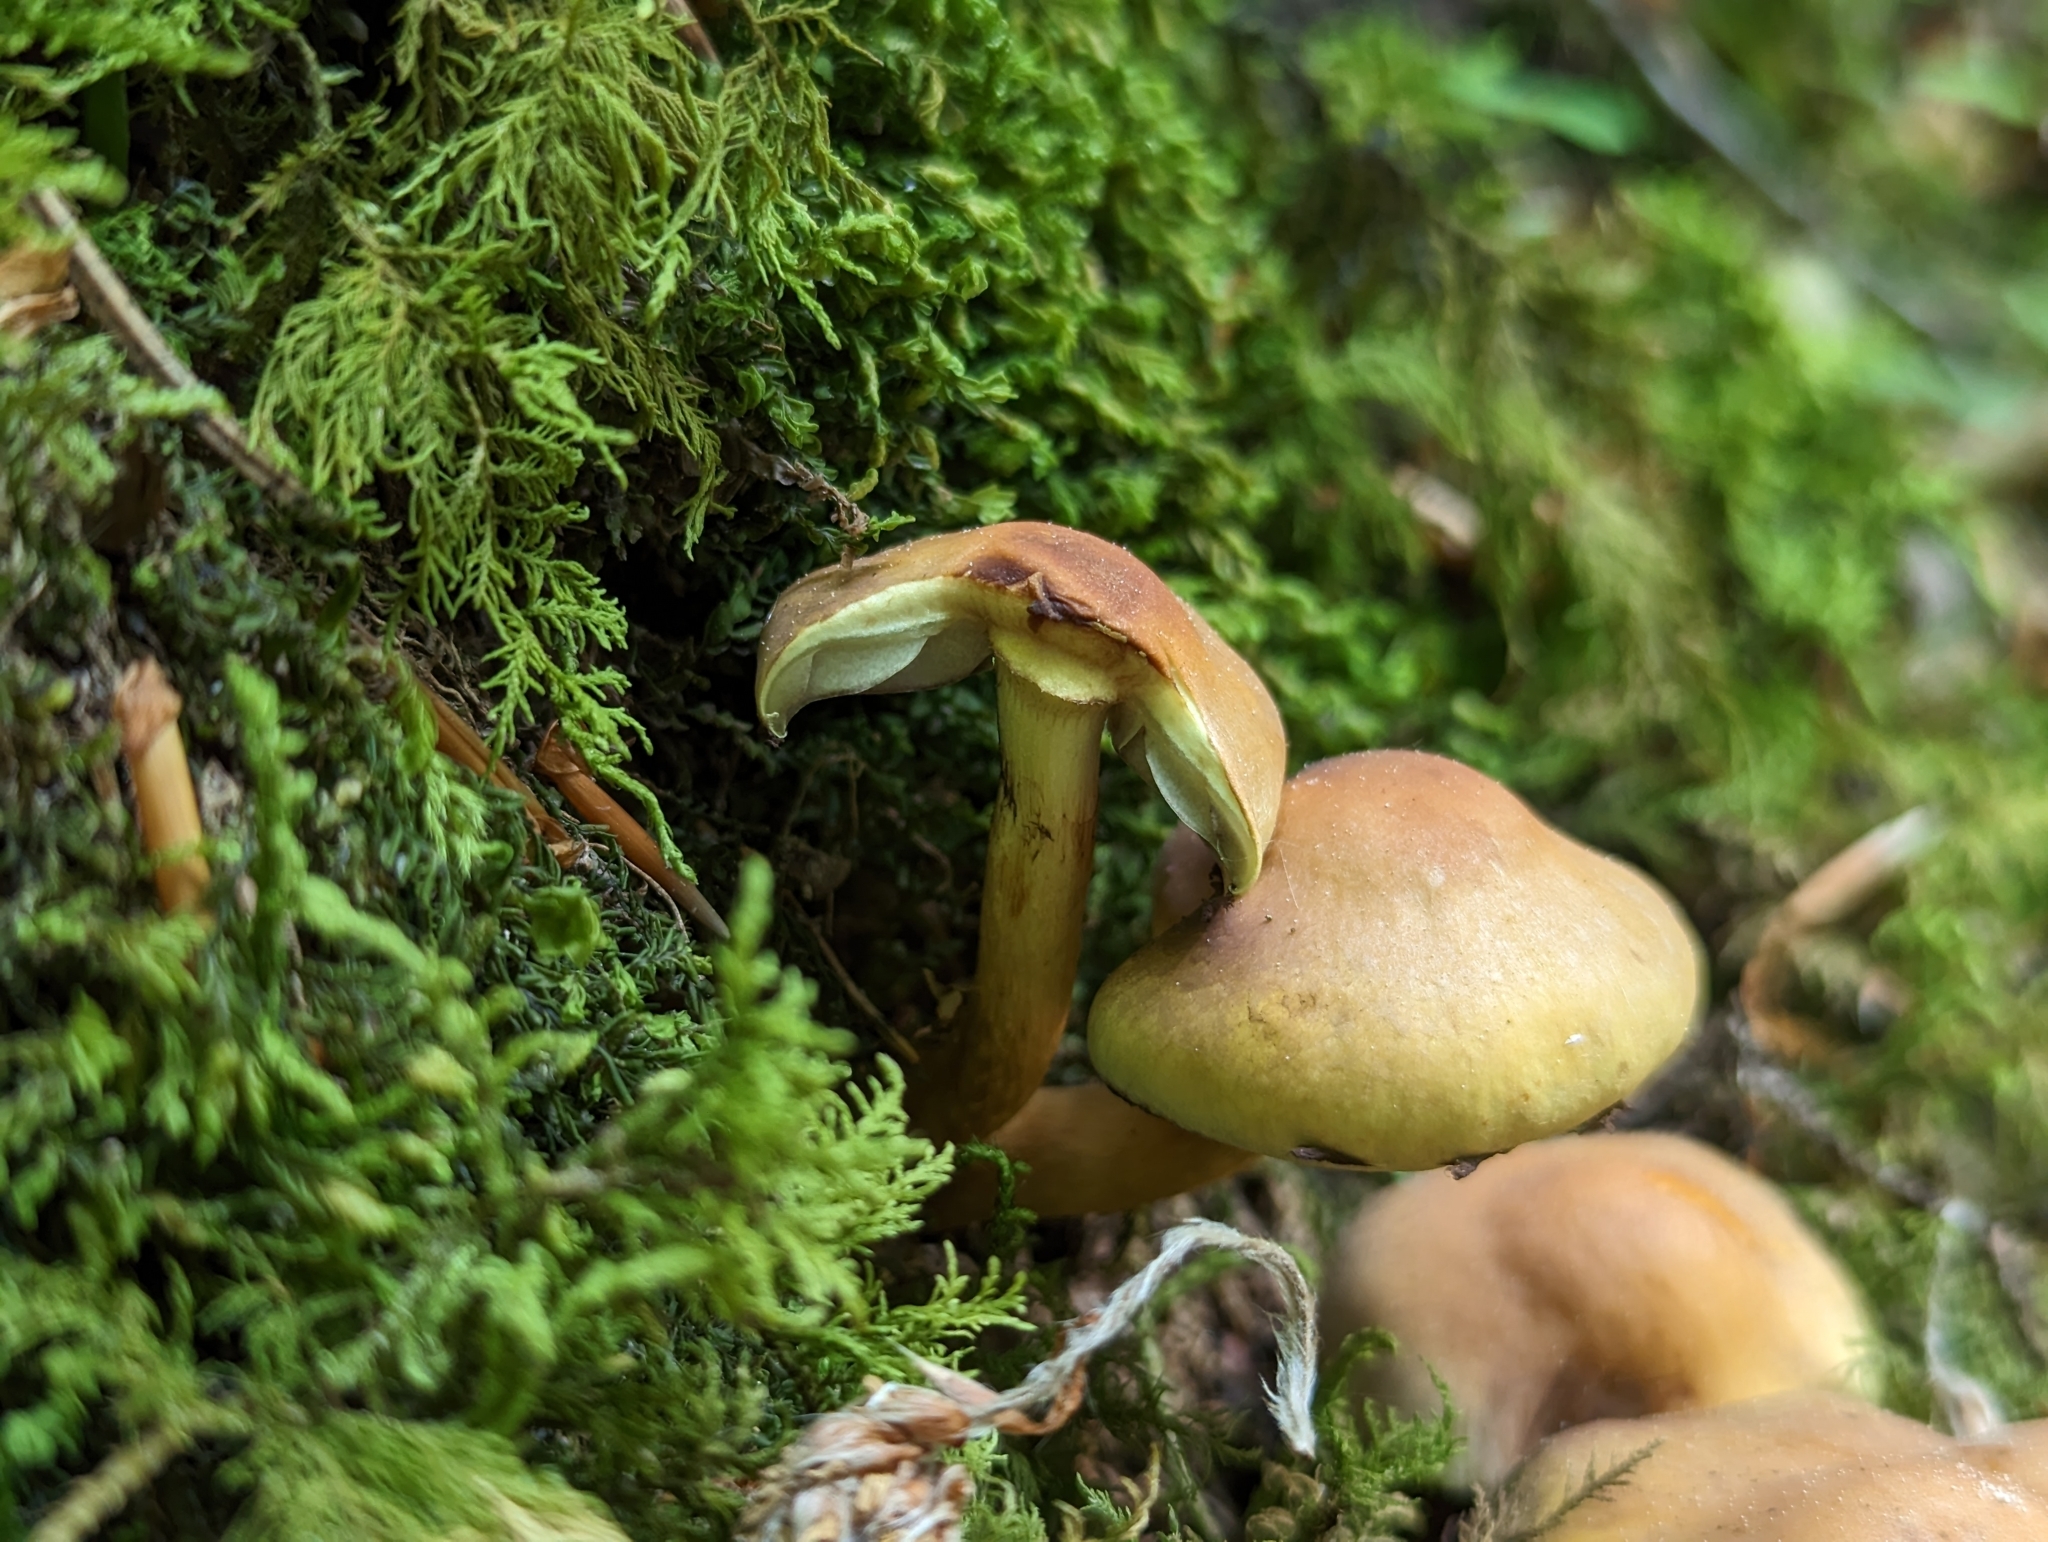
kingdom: Fungi
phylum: Basidiomycota
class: Agaricomycetes
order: Agaricales
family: Strophariaceae
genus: Hypholoma
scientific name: Hypholoma fasciculare
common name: Sulphur tuft
